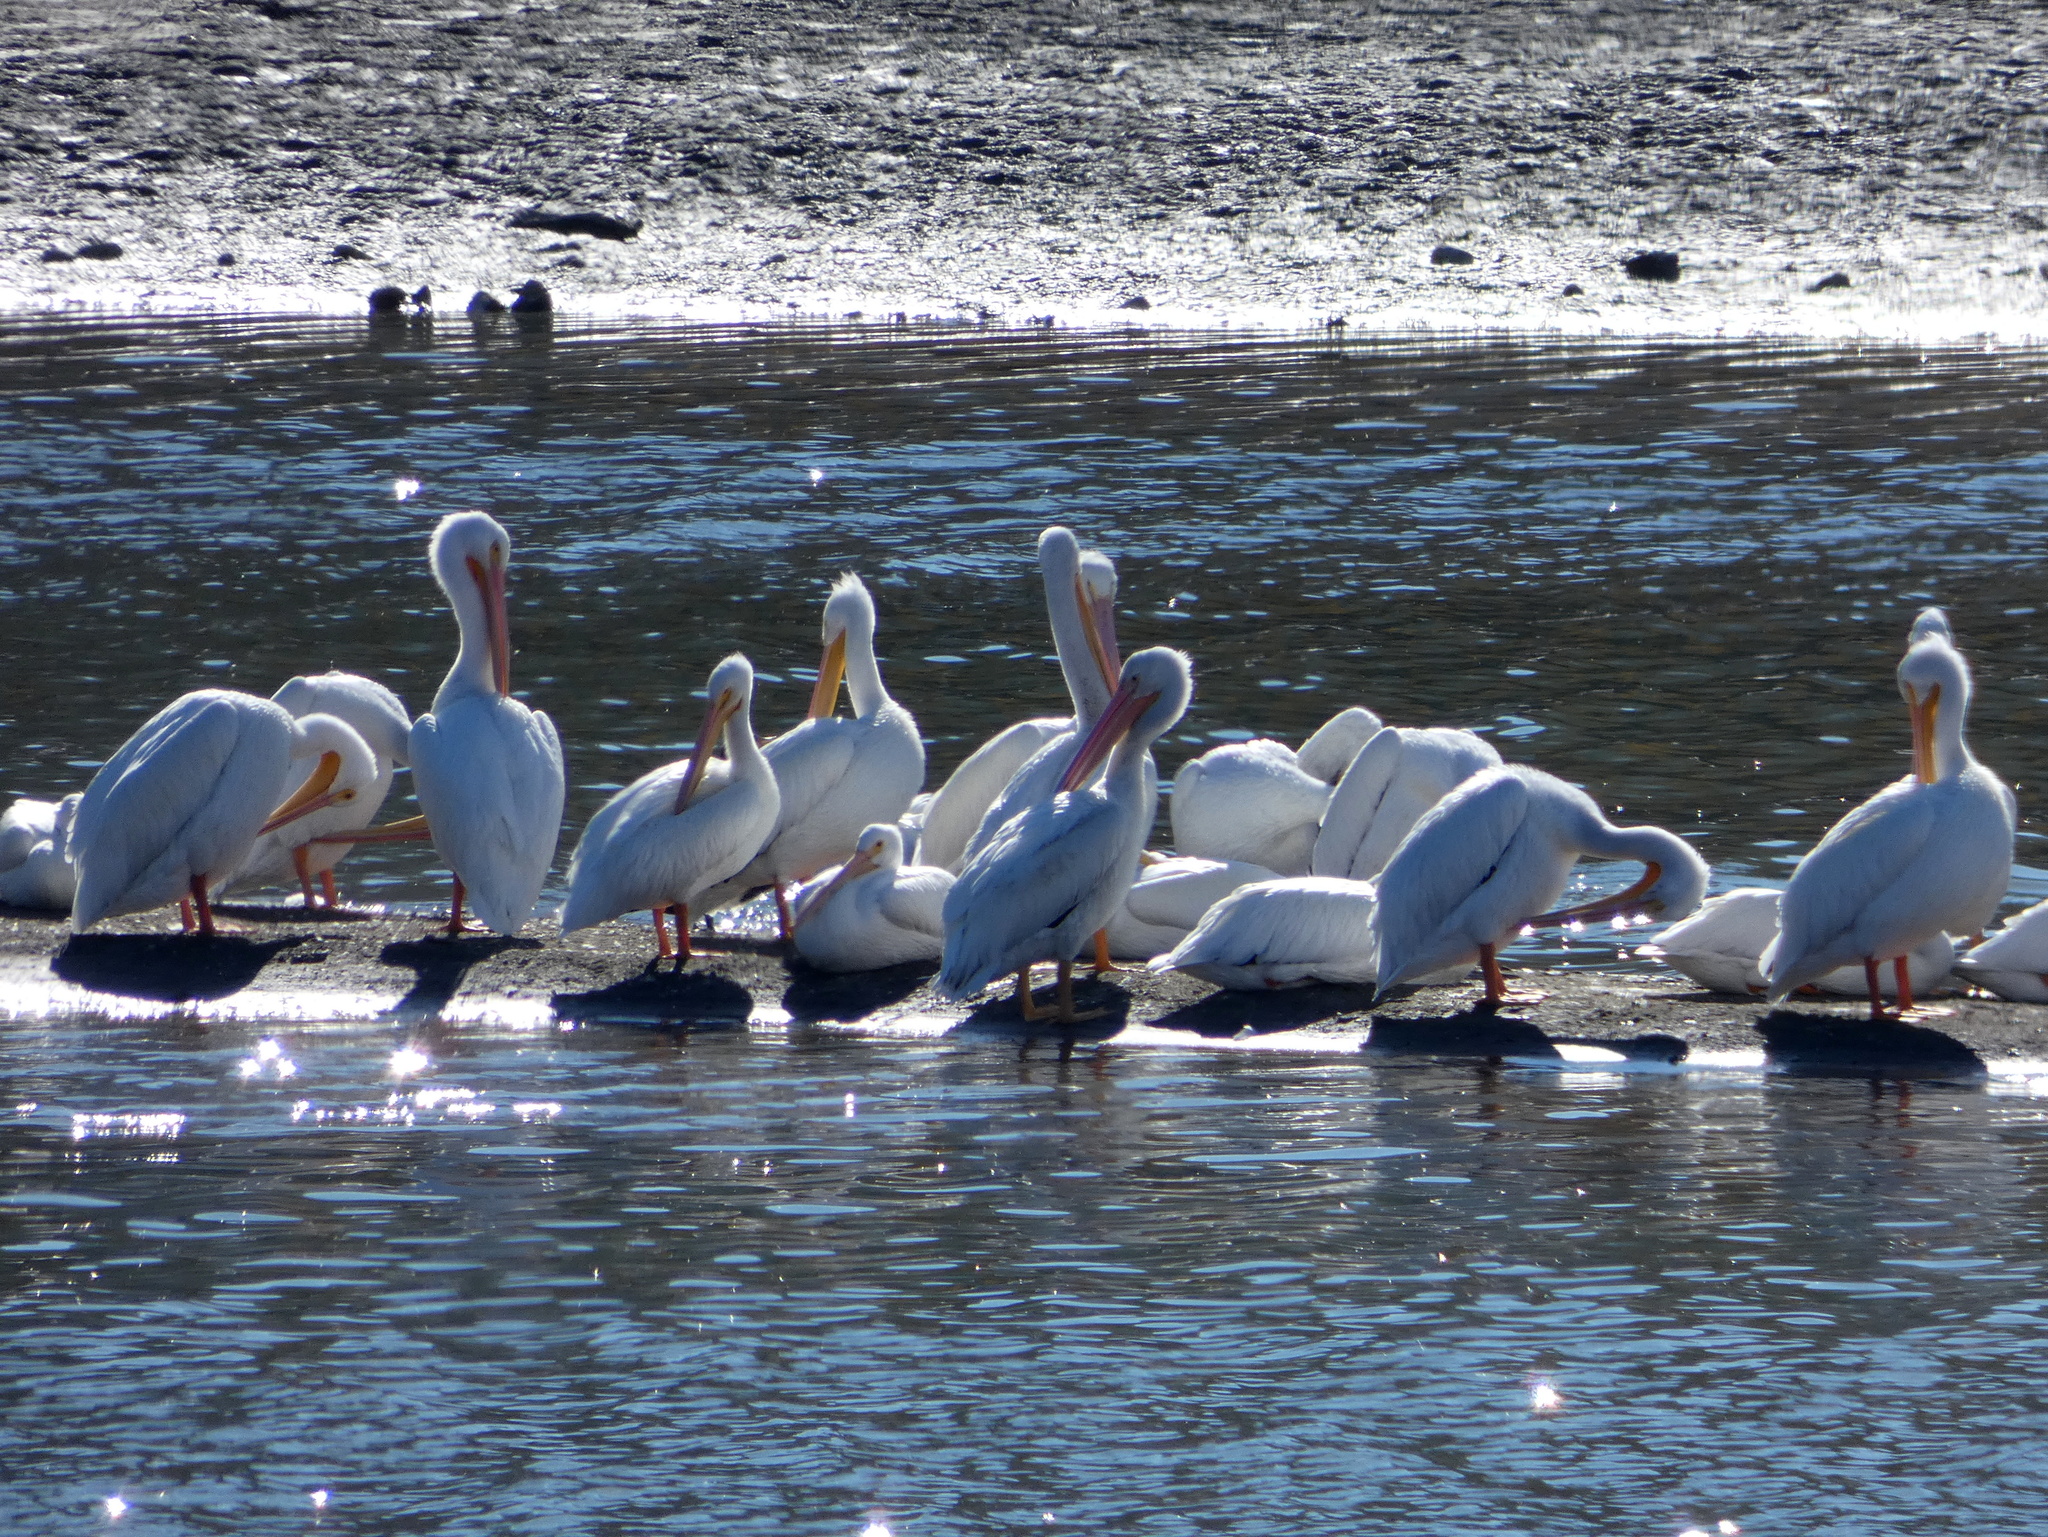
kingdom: Animalia
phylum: Chordata
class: Aves
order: Pelecaniformes
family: Pelecanidae
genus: Pelecanus
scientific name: Pelecanus erythrorhynchos
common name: American white pelican
